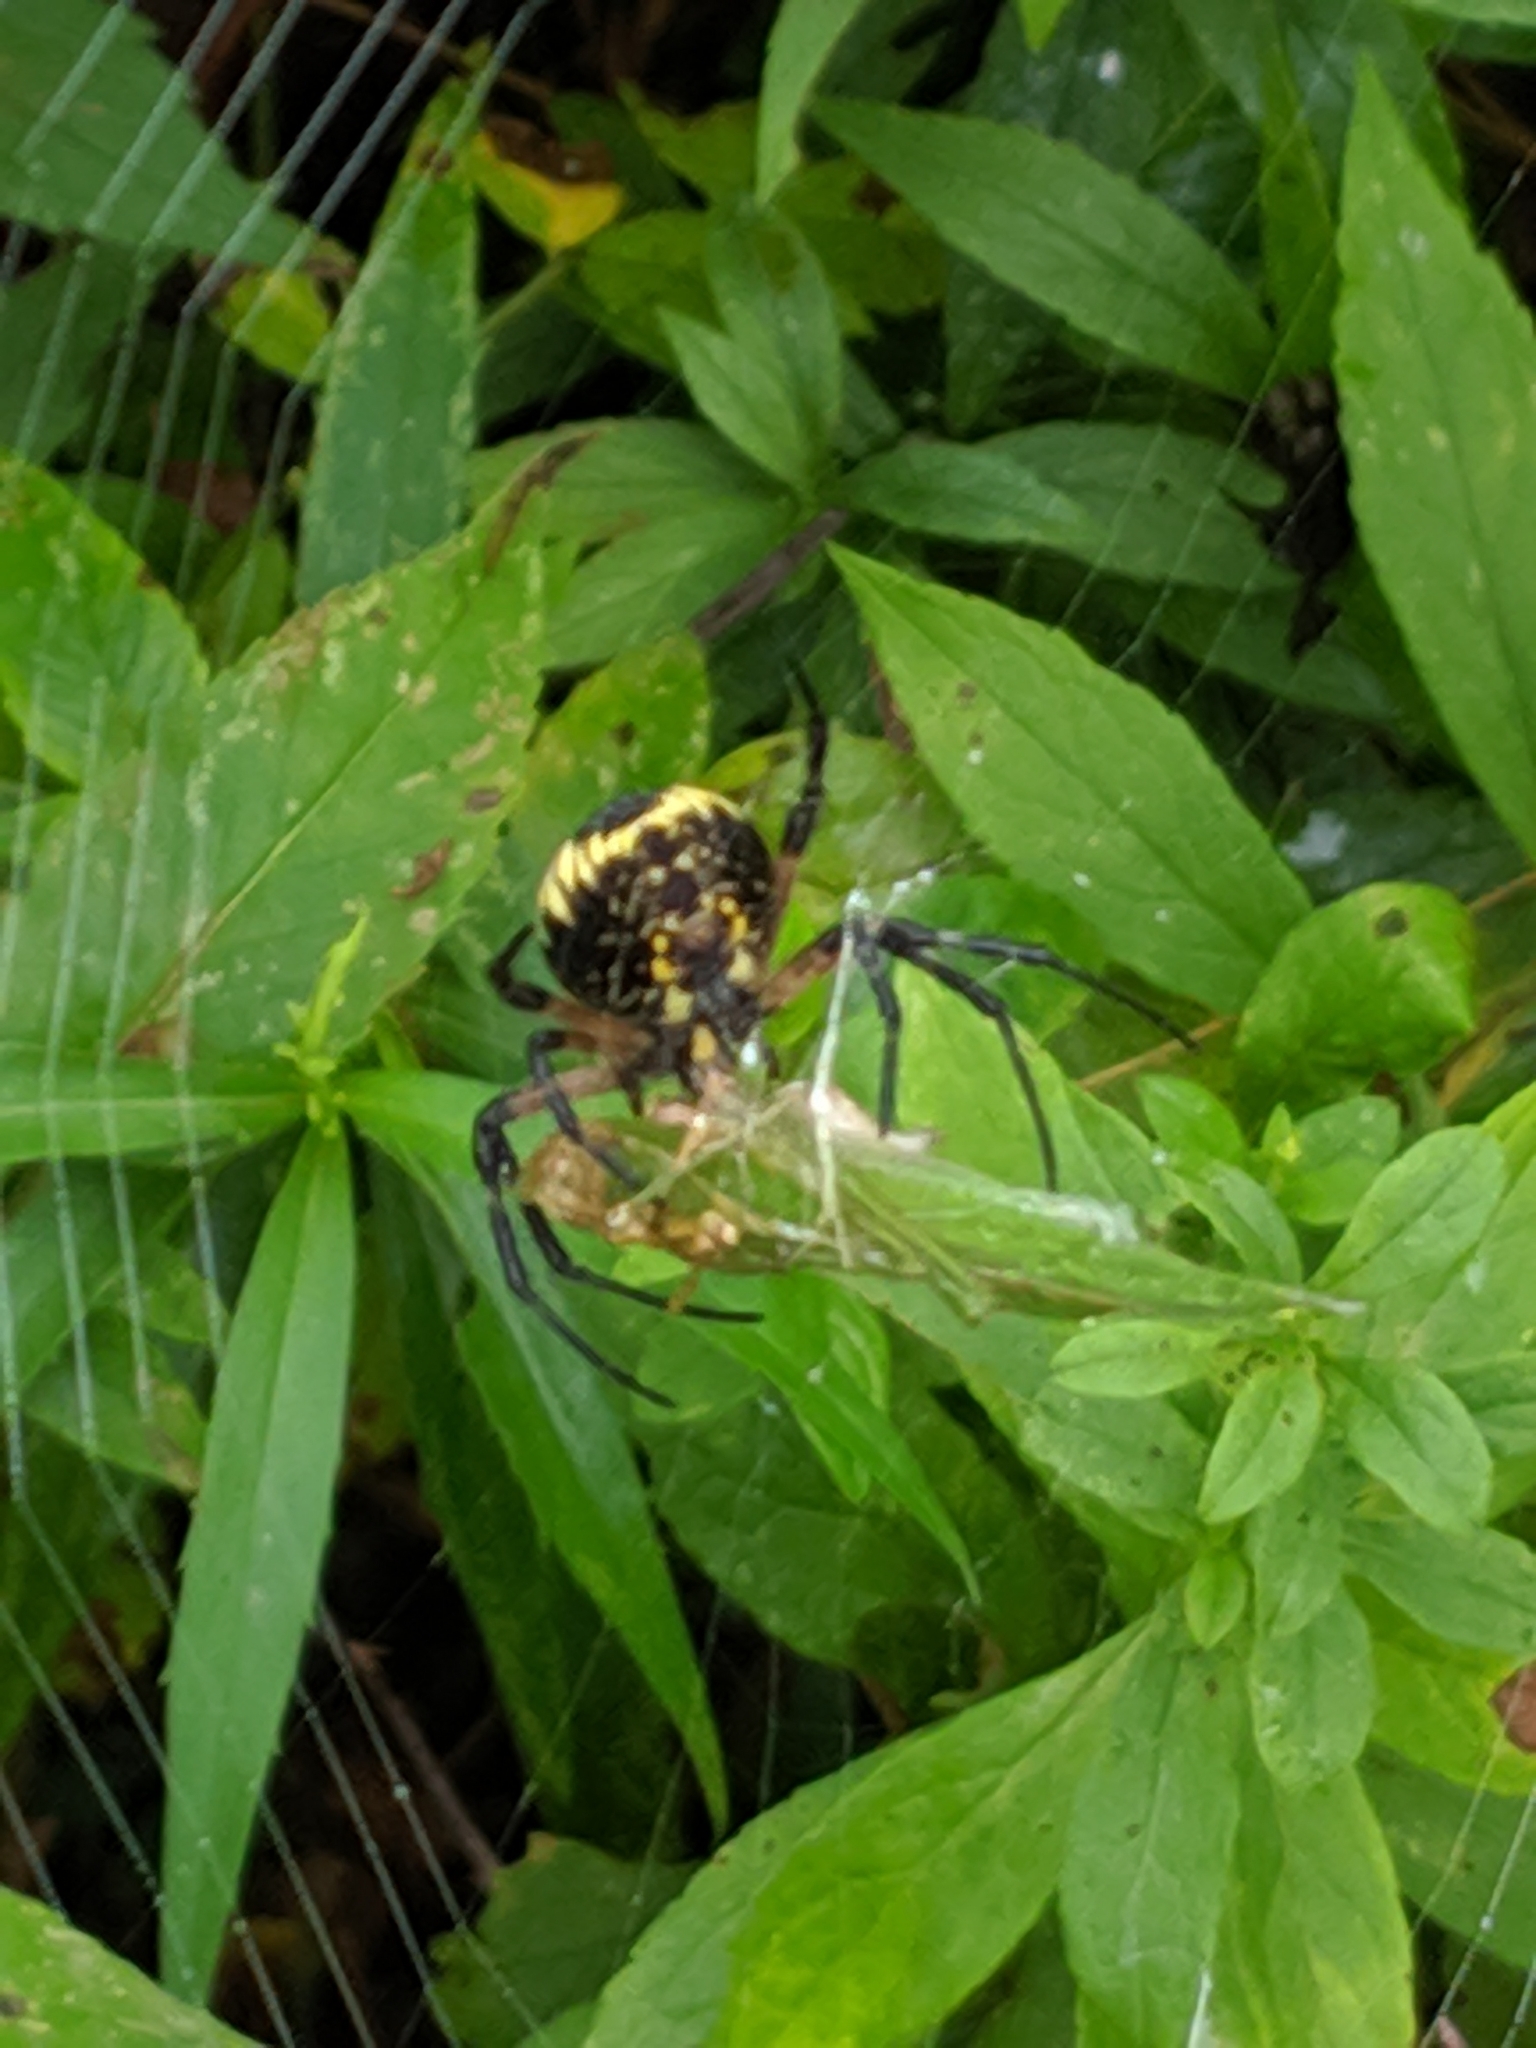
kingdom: Animalia
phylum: Arthropoda
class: Arachnida
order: Araneae
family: Araneidae
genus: Argiope
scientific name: Argiope aurantia
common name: Orb weavers
